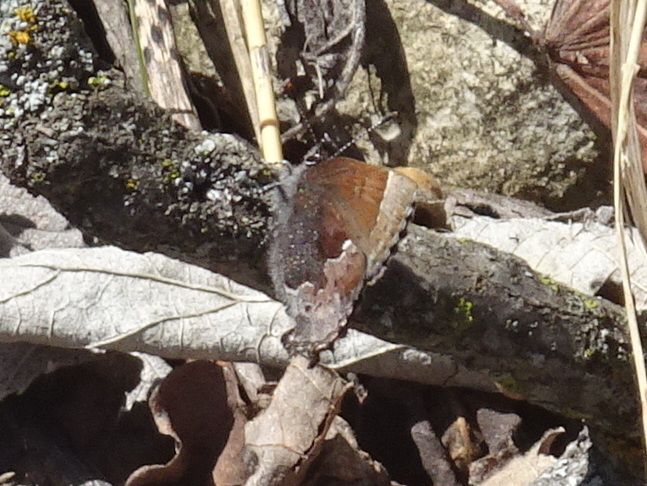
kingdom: Animalia
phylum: Arthropoda
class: Insecta
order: Lepidoptera
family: Lycaenidae
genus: Incisalia
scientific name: Incisalia henrici
